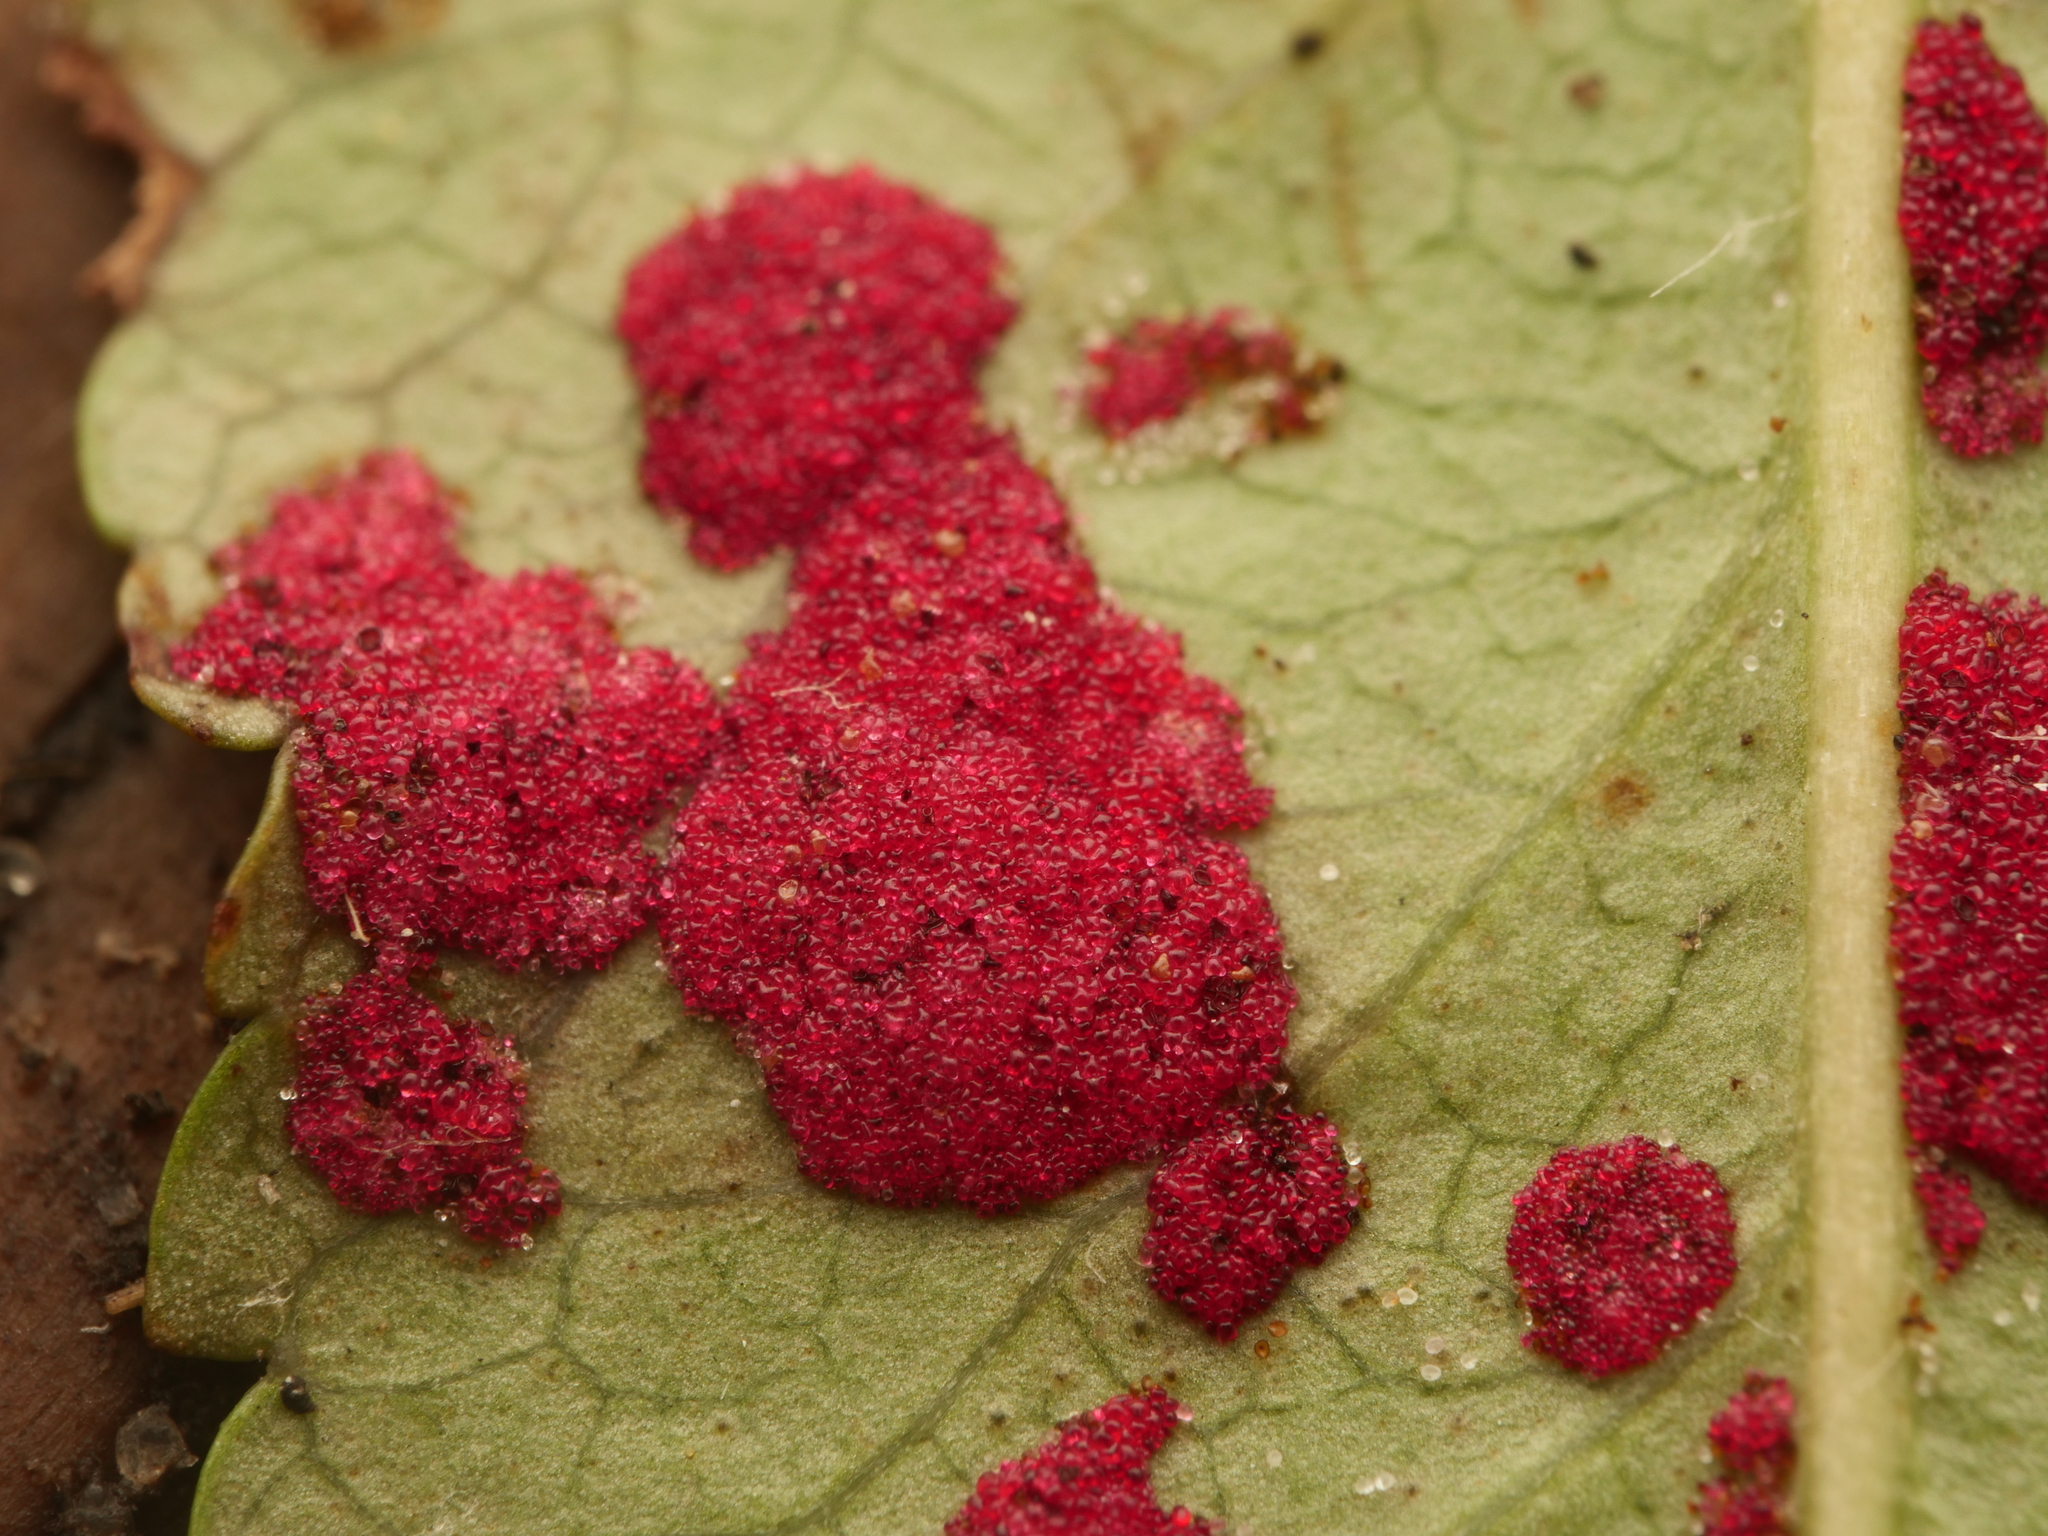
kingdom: Animalia
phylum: Arthropoda
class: Arachnida
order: Trombidiformes
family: Eriophyidae
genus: Aceria
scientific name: Aceria pyracanthi
